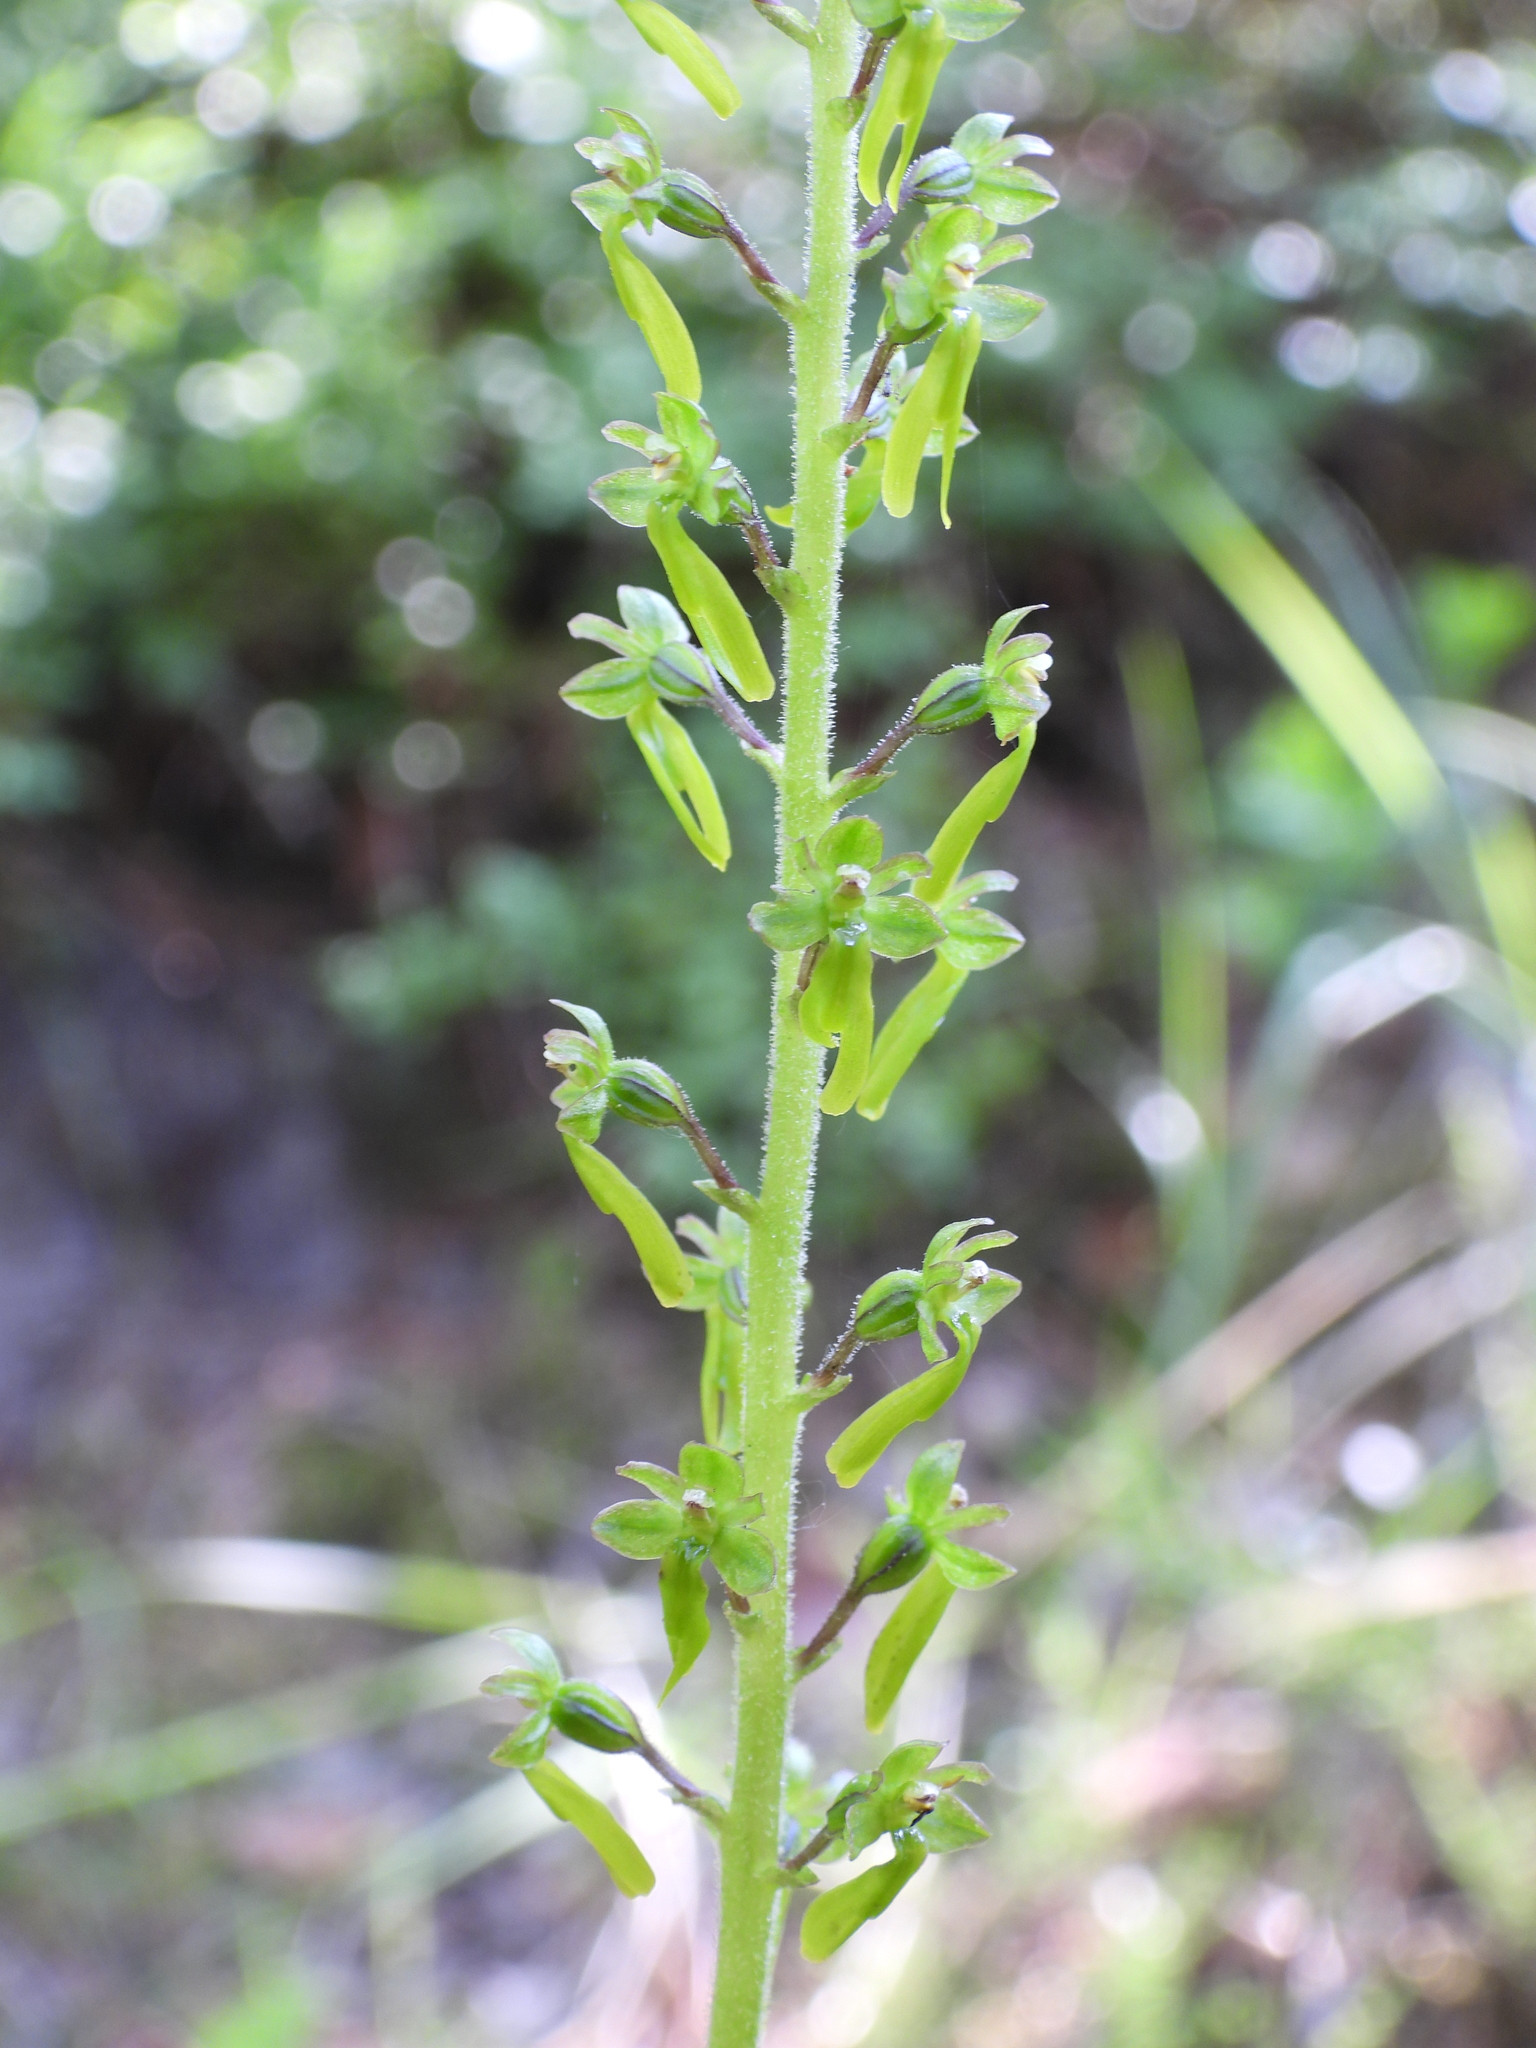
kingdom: Plantae
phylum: Tracheophyta
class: Liliopsida
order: Asparagales
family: Orchidaceae
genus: Neottia
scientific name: Neottia ovata
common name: Common twayblade
